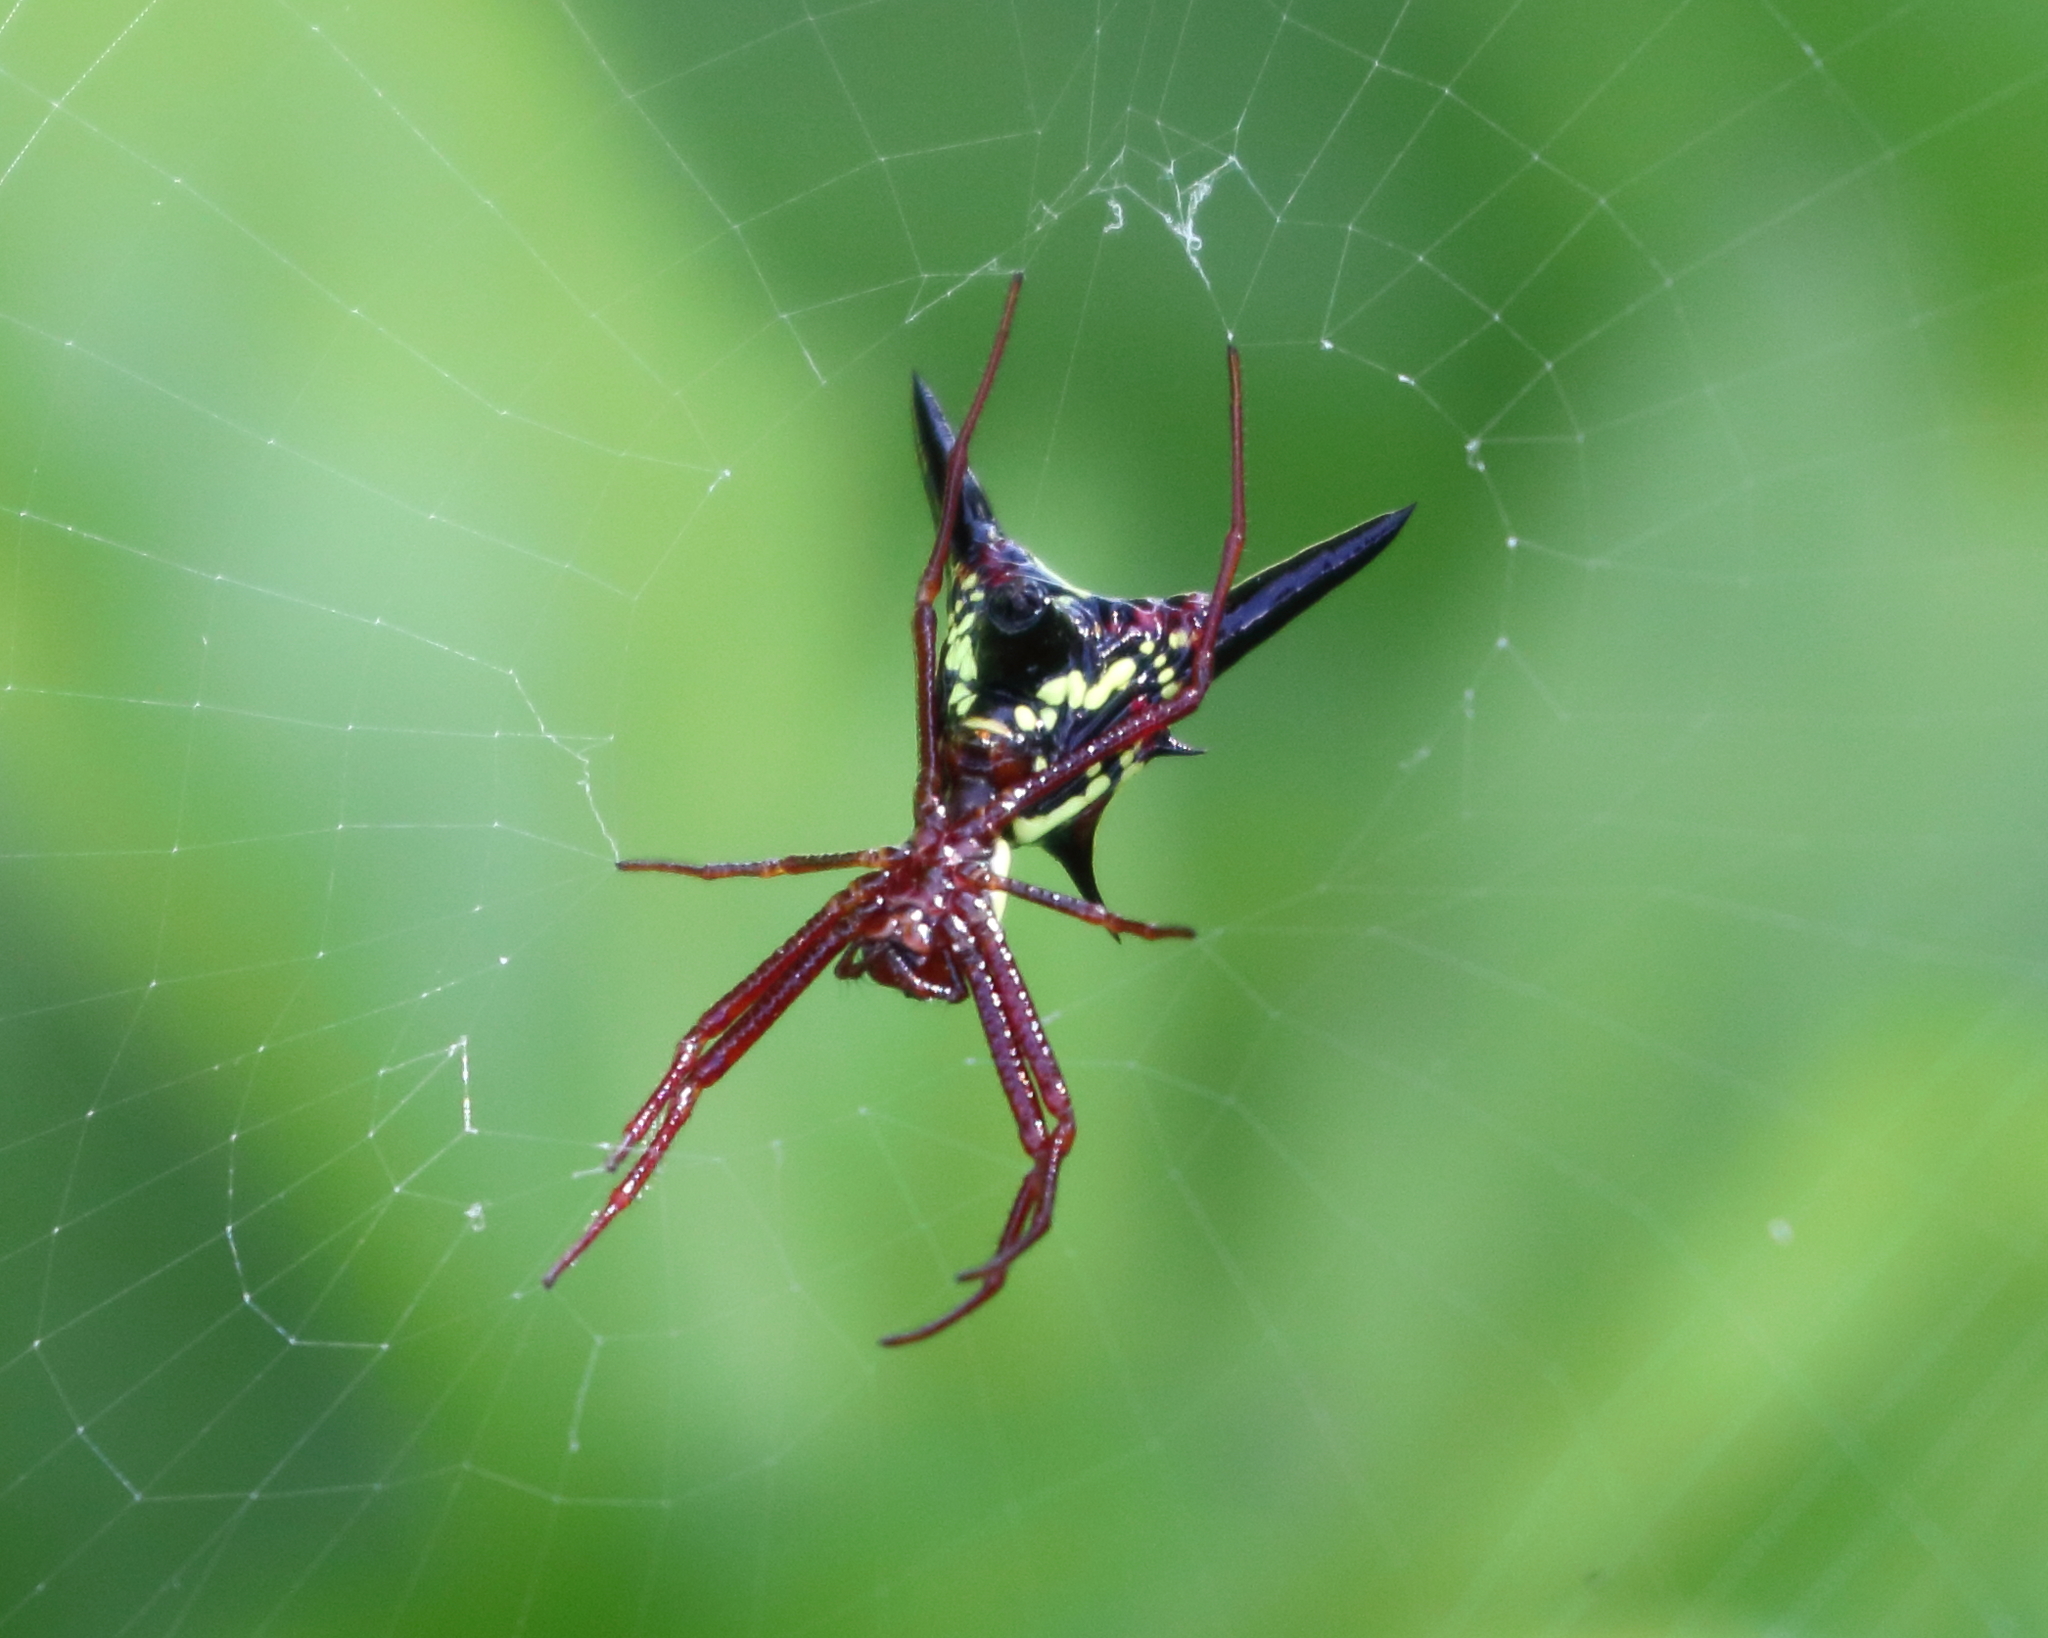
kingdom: Animalia
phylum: Arthropoda
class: Arachnida
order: Araneae
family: Araneidae
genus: Micrathena
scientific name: Micrathena sagittata
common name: Orb weavers
